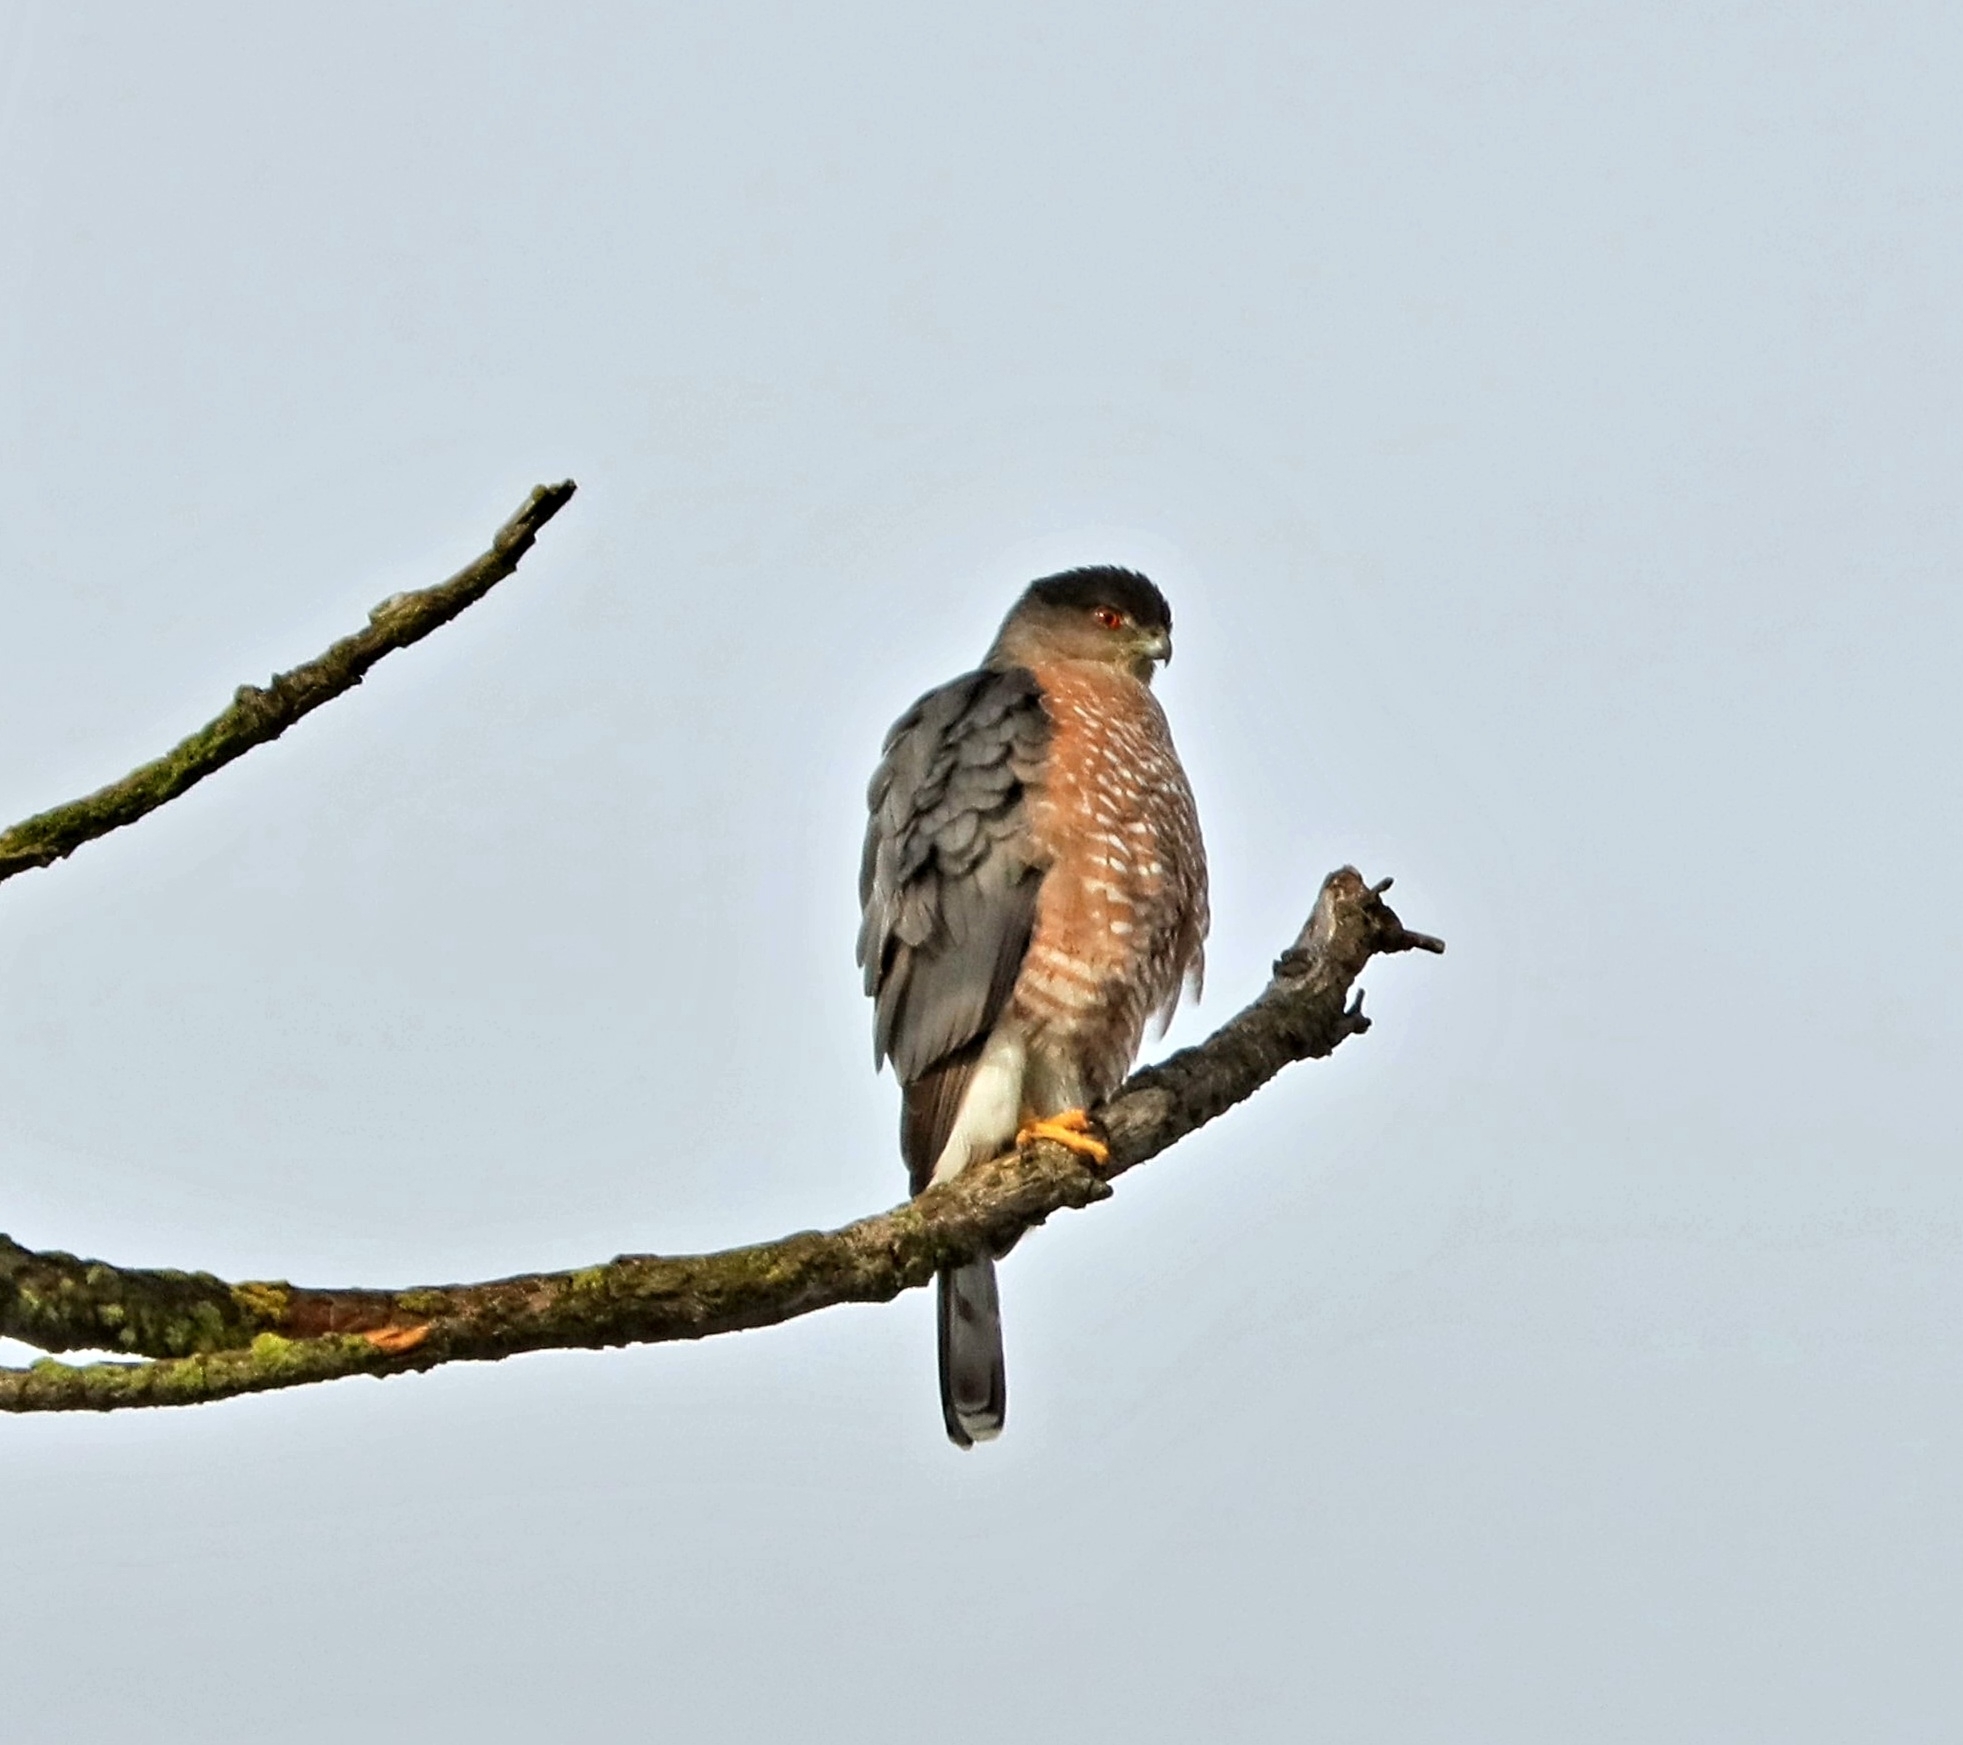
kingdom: Animalia
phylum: Chordata
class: Aves
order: Accipitriformes
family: Accipitridae
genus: Accipiter
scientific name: Accipiter cooperii
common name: Cooper's hawk
